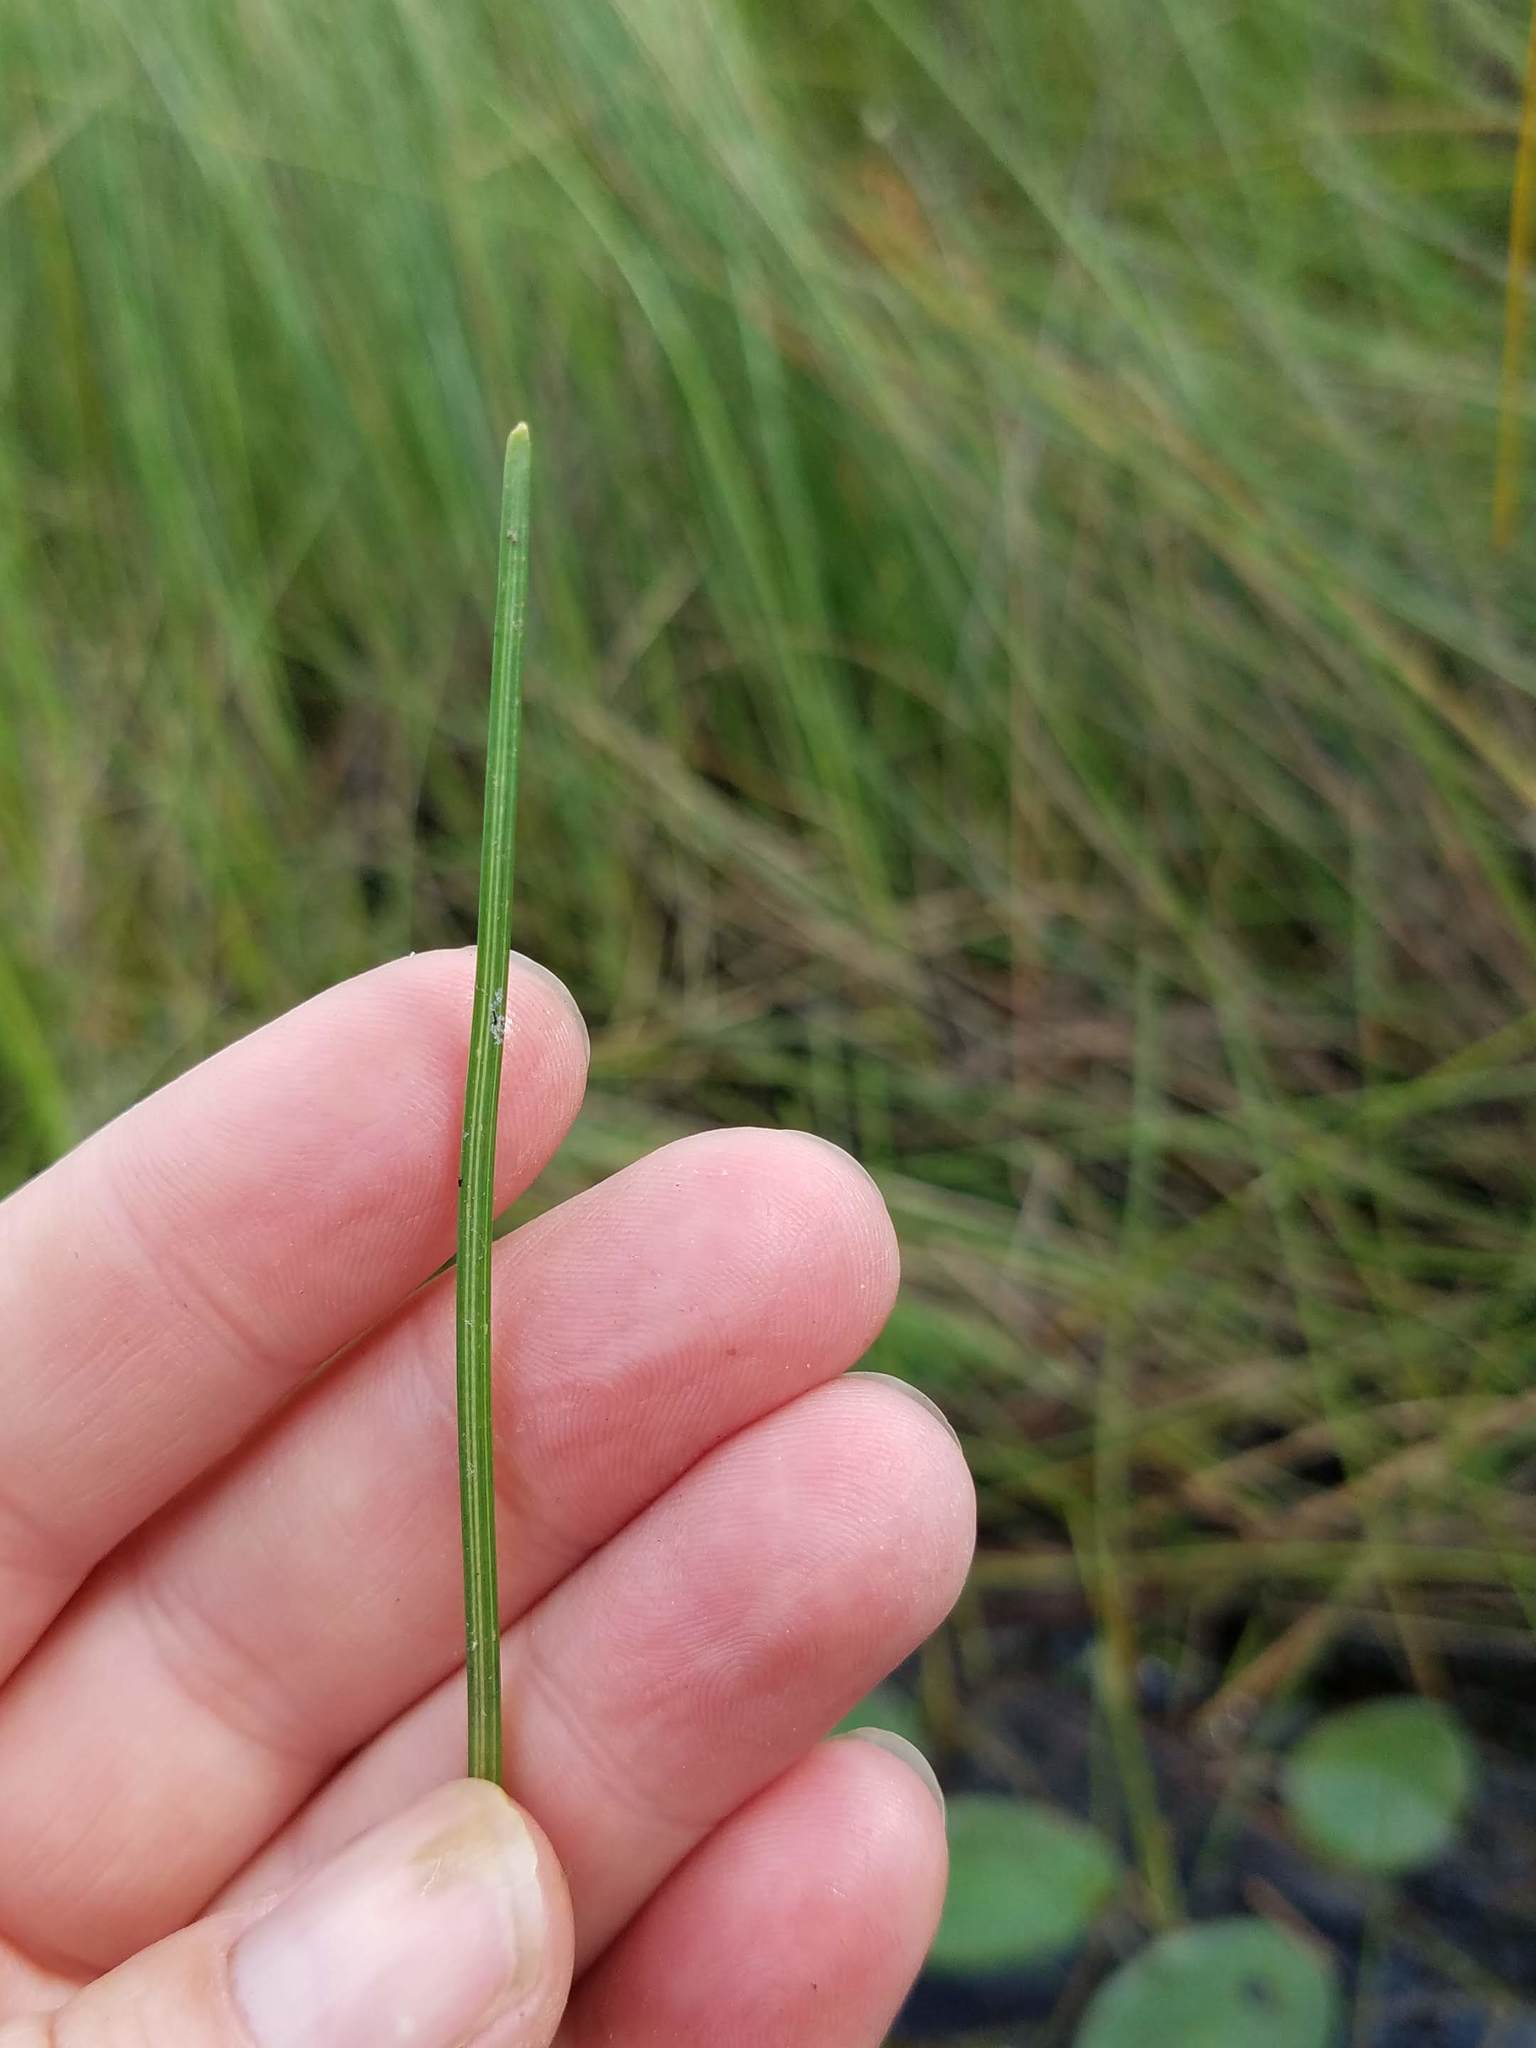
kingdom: Plantae
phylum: Tracheophyta
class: Liliopsida
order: Poales
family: Cyperaceae
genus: Eleocharis
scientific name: Eleocharis robbinsii
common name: Robbins' spikerush
